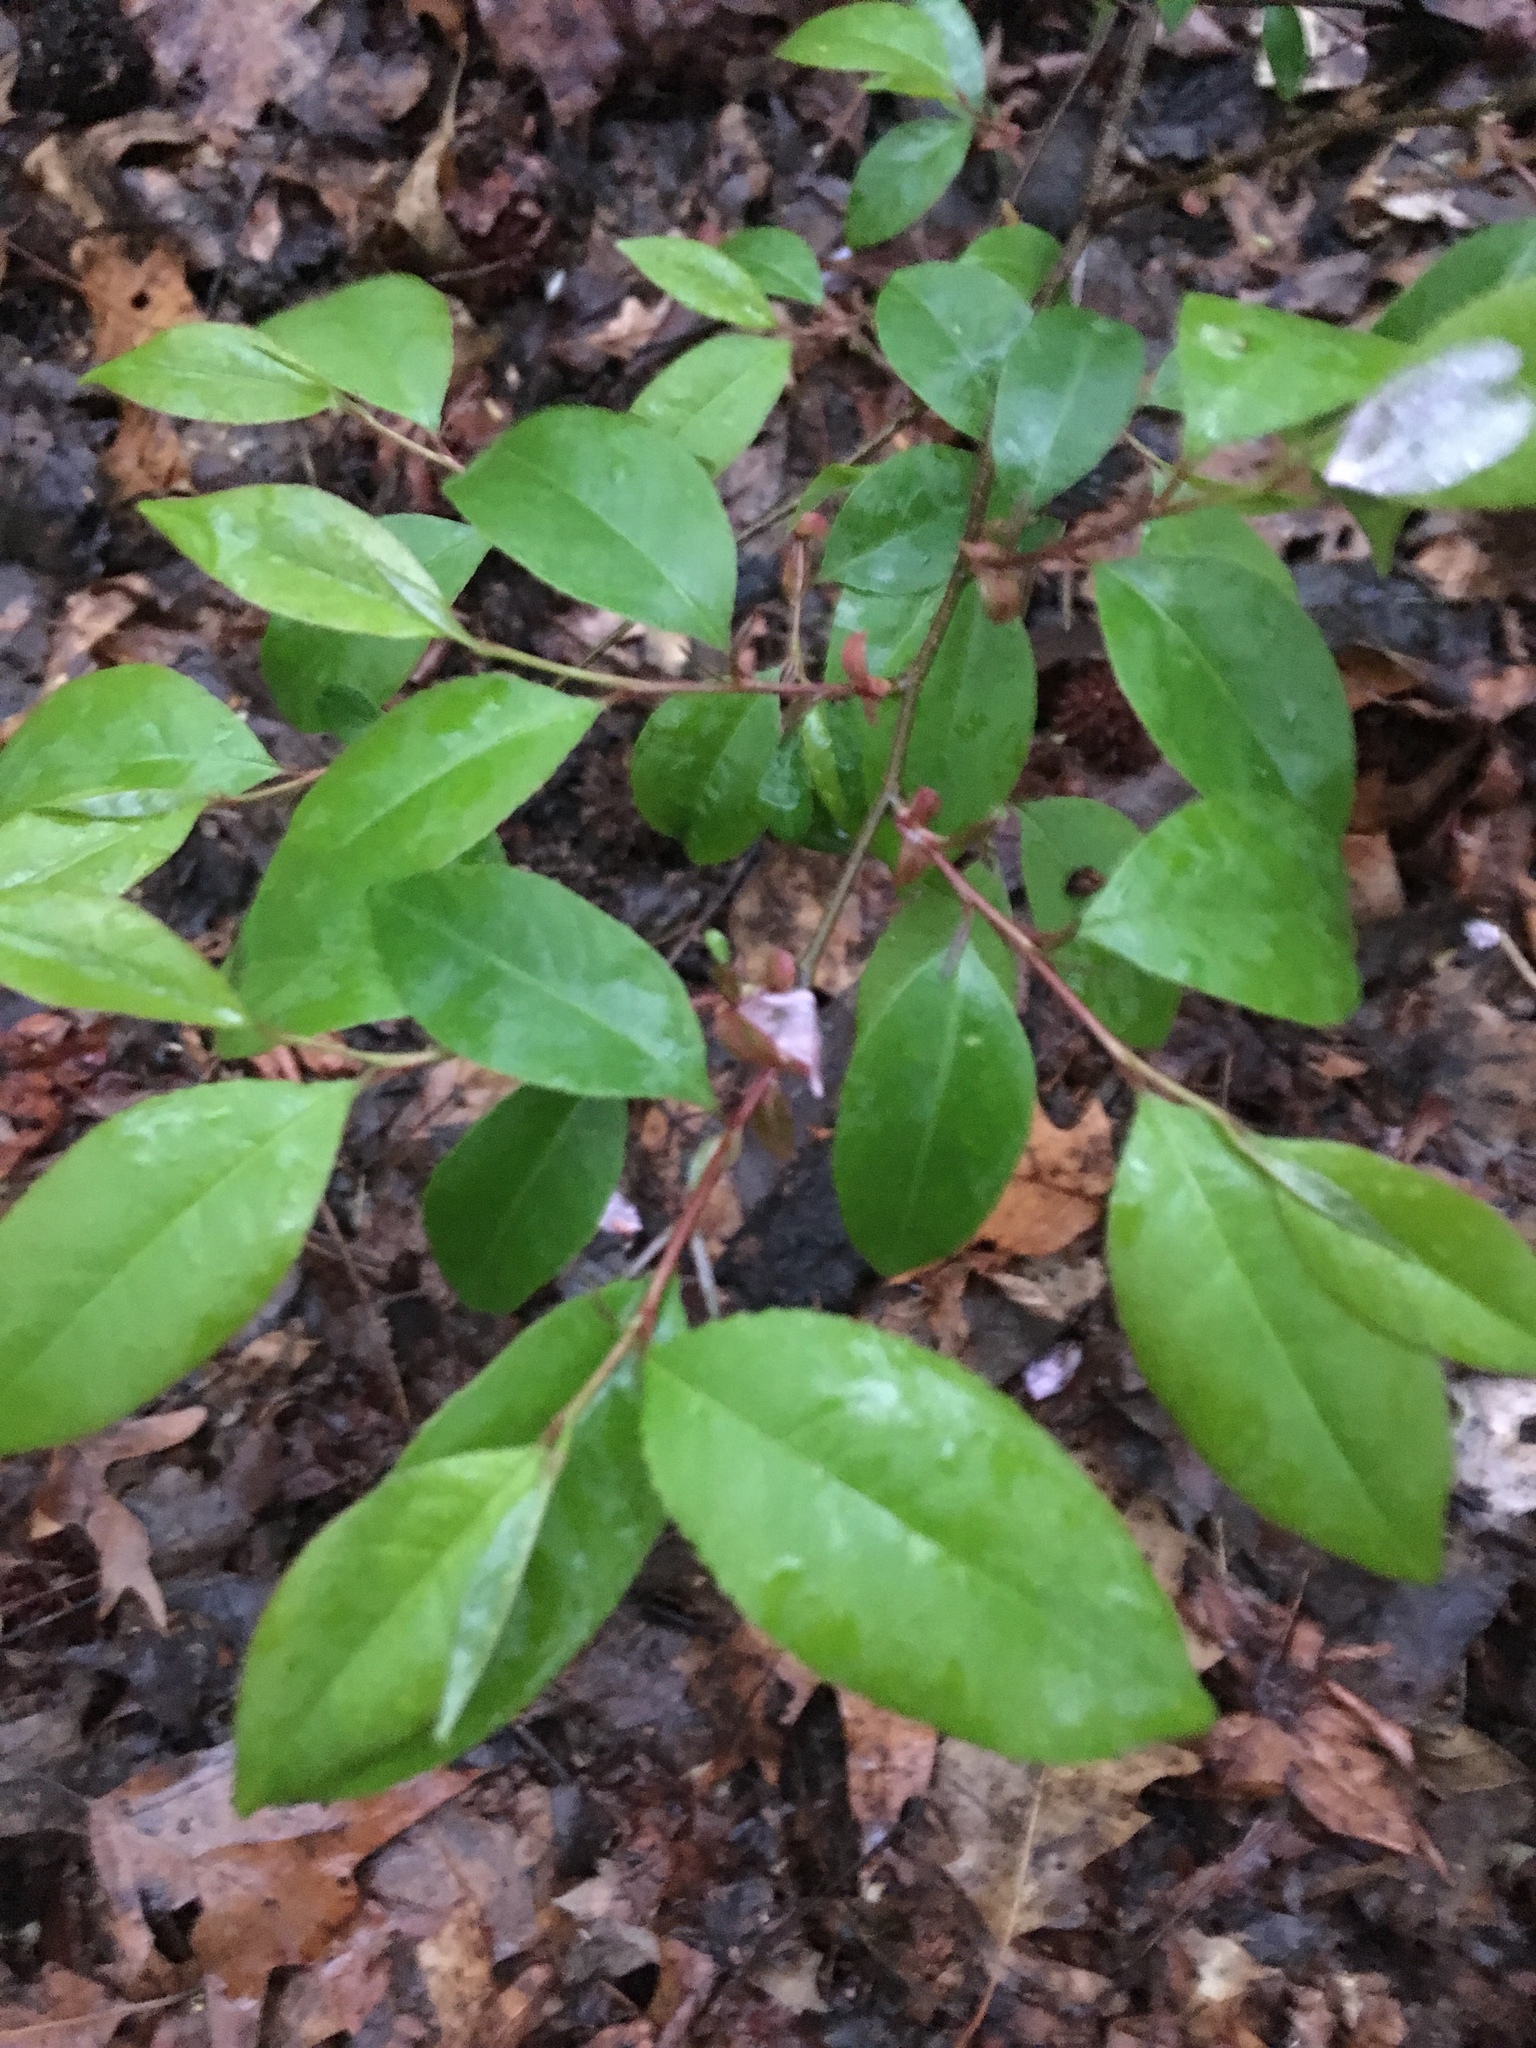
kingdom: Plantae
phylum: Tracheophyta
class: Magnoliopsida
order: Rosales
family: Rosaceae
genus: Prunus
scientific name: Prunus serotina
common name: Black cherry
